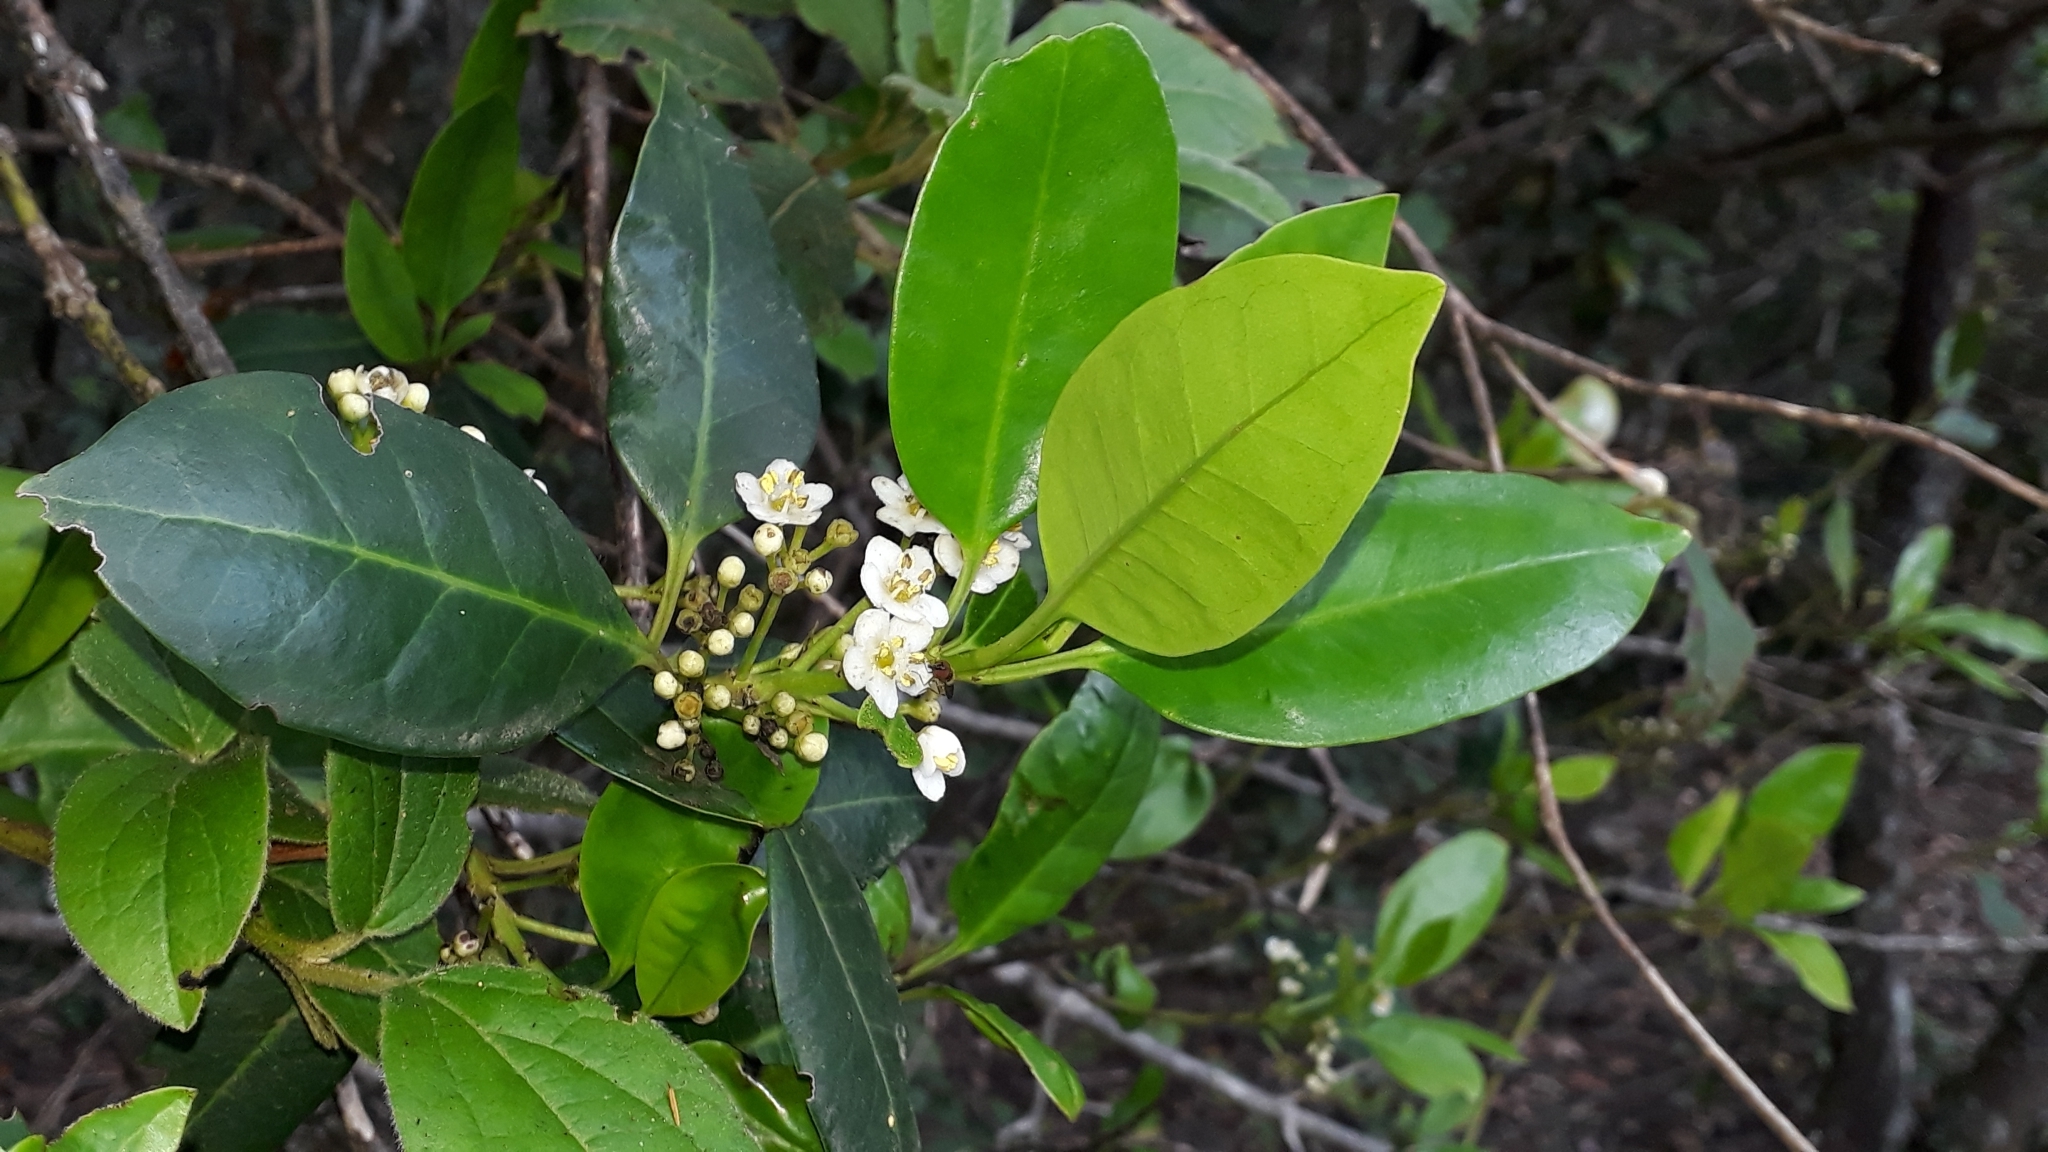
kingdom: Plantae
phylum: Tracheophyta
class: Magnoliopsida
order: Aquifoliales
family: Aquifoliaceae
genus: Ilex
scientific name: Ilex canariensis
